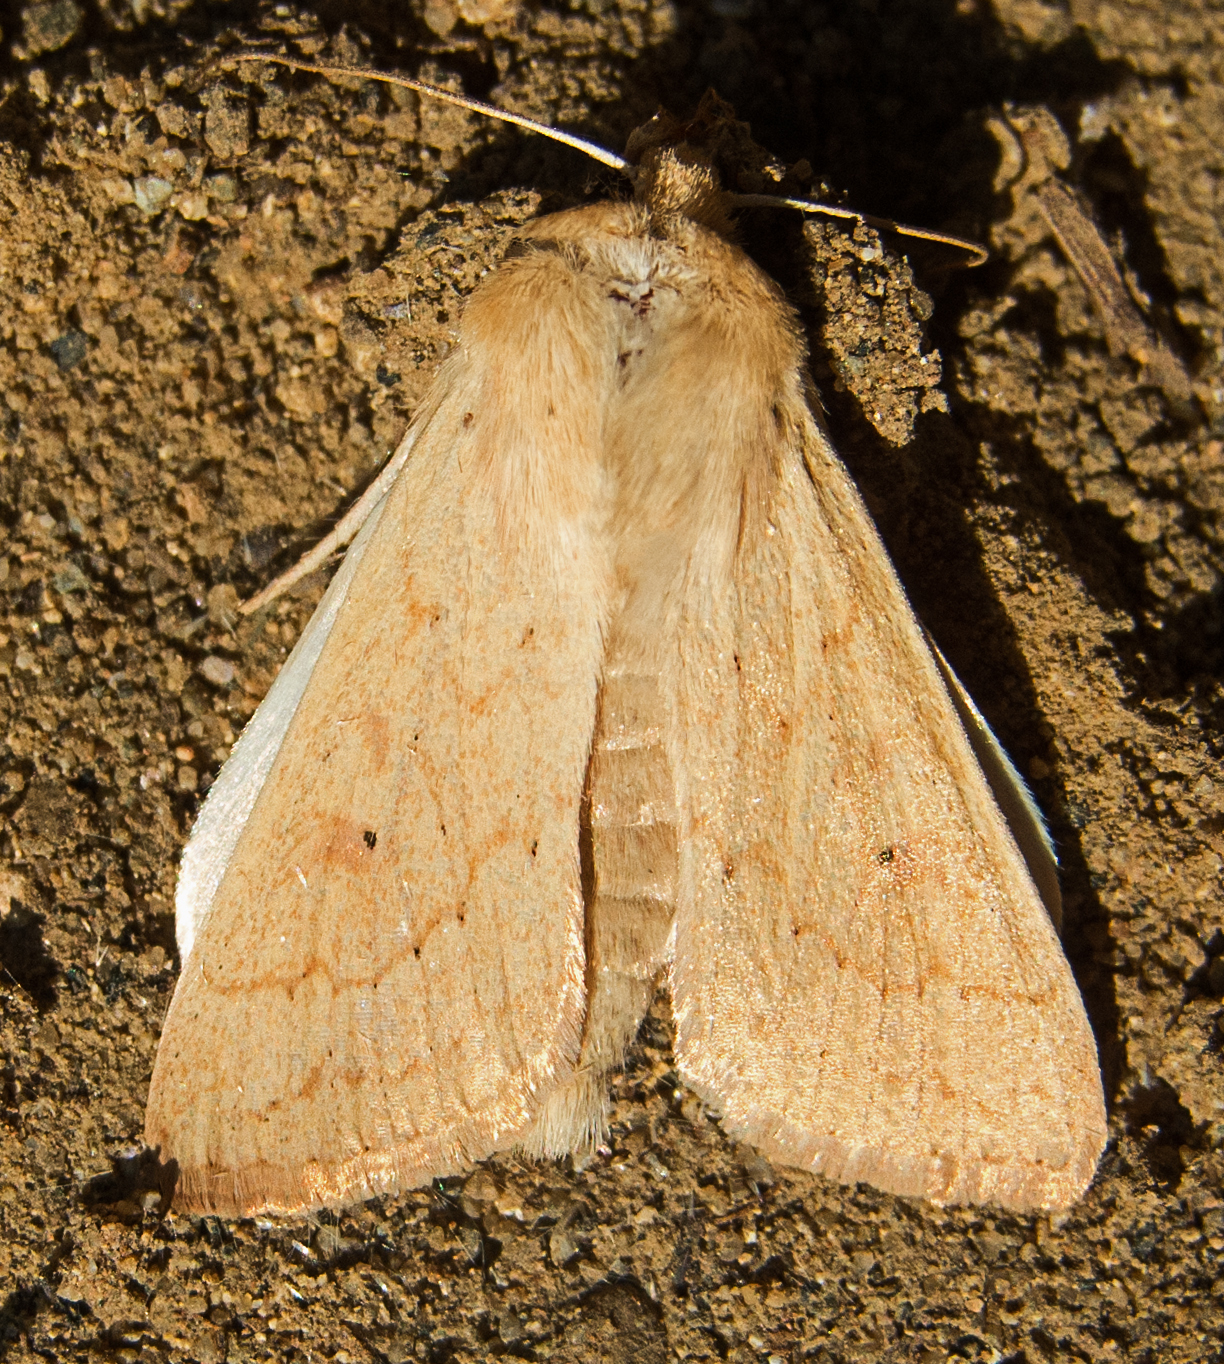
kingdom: Animalia
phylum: Arthropoda
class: Insecta
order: Lepidoptera
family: Noctuidae
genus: Mythimna
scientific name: Mythimna vitellina
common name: Delicate
